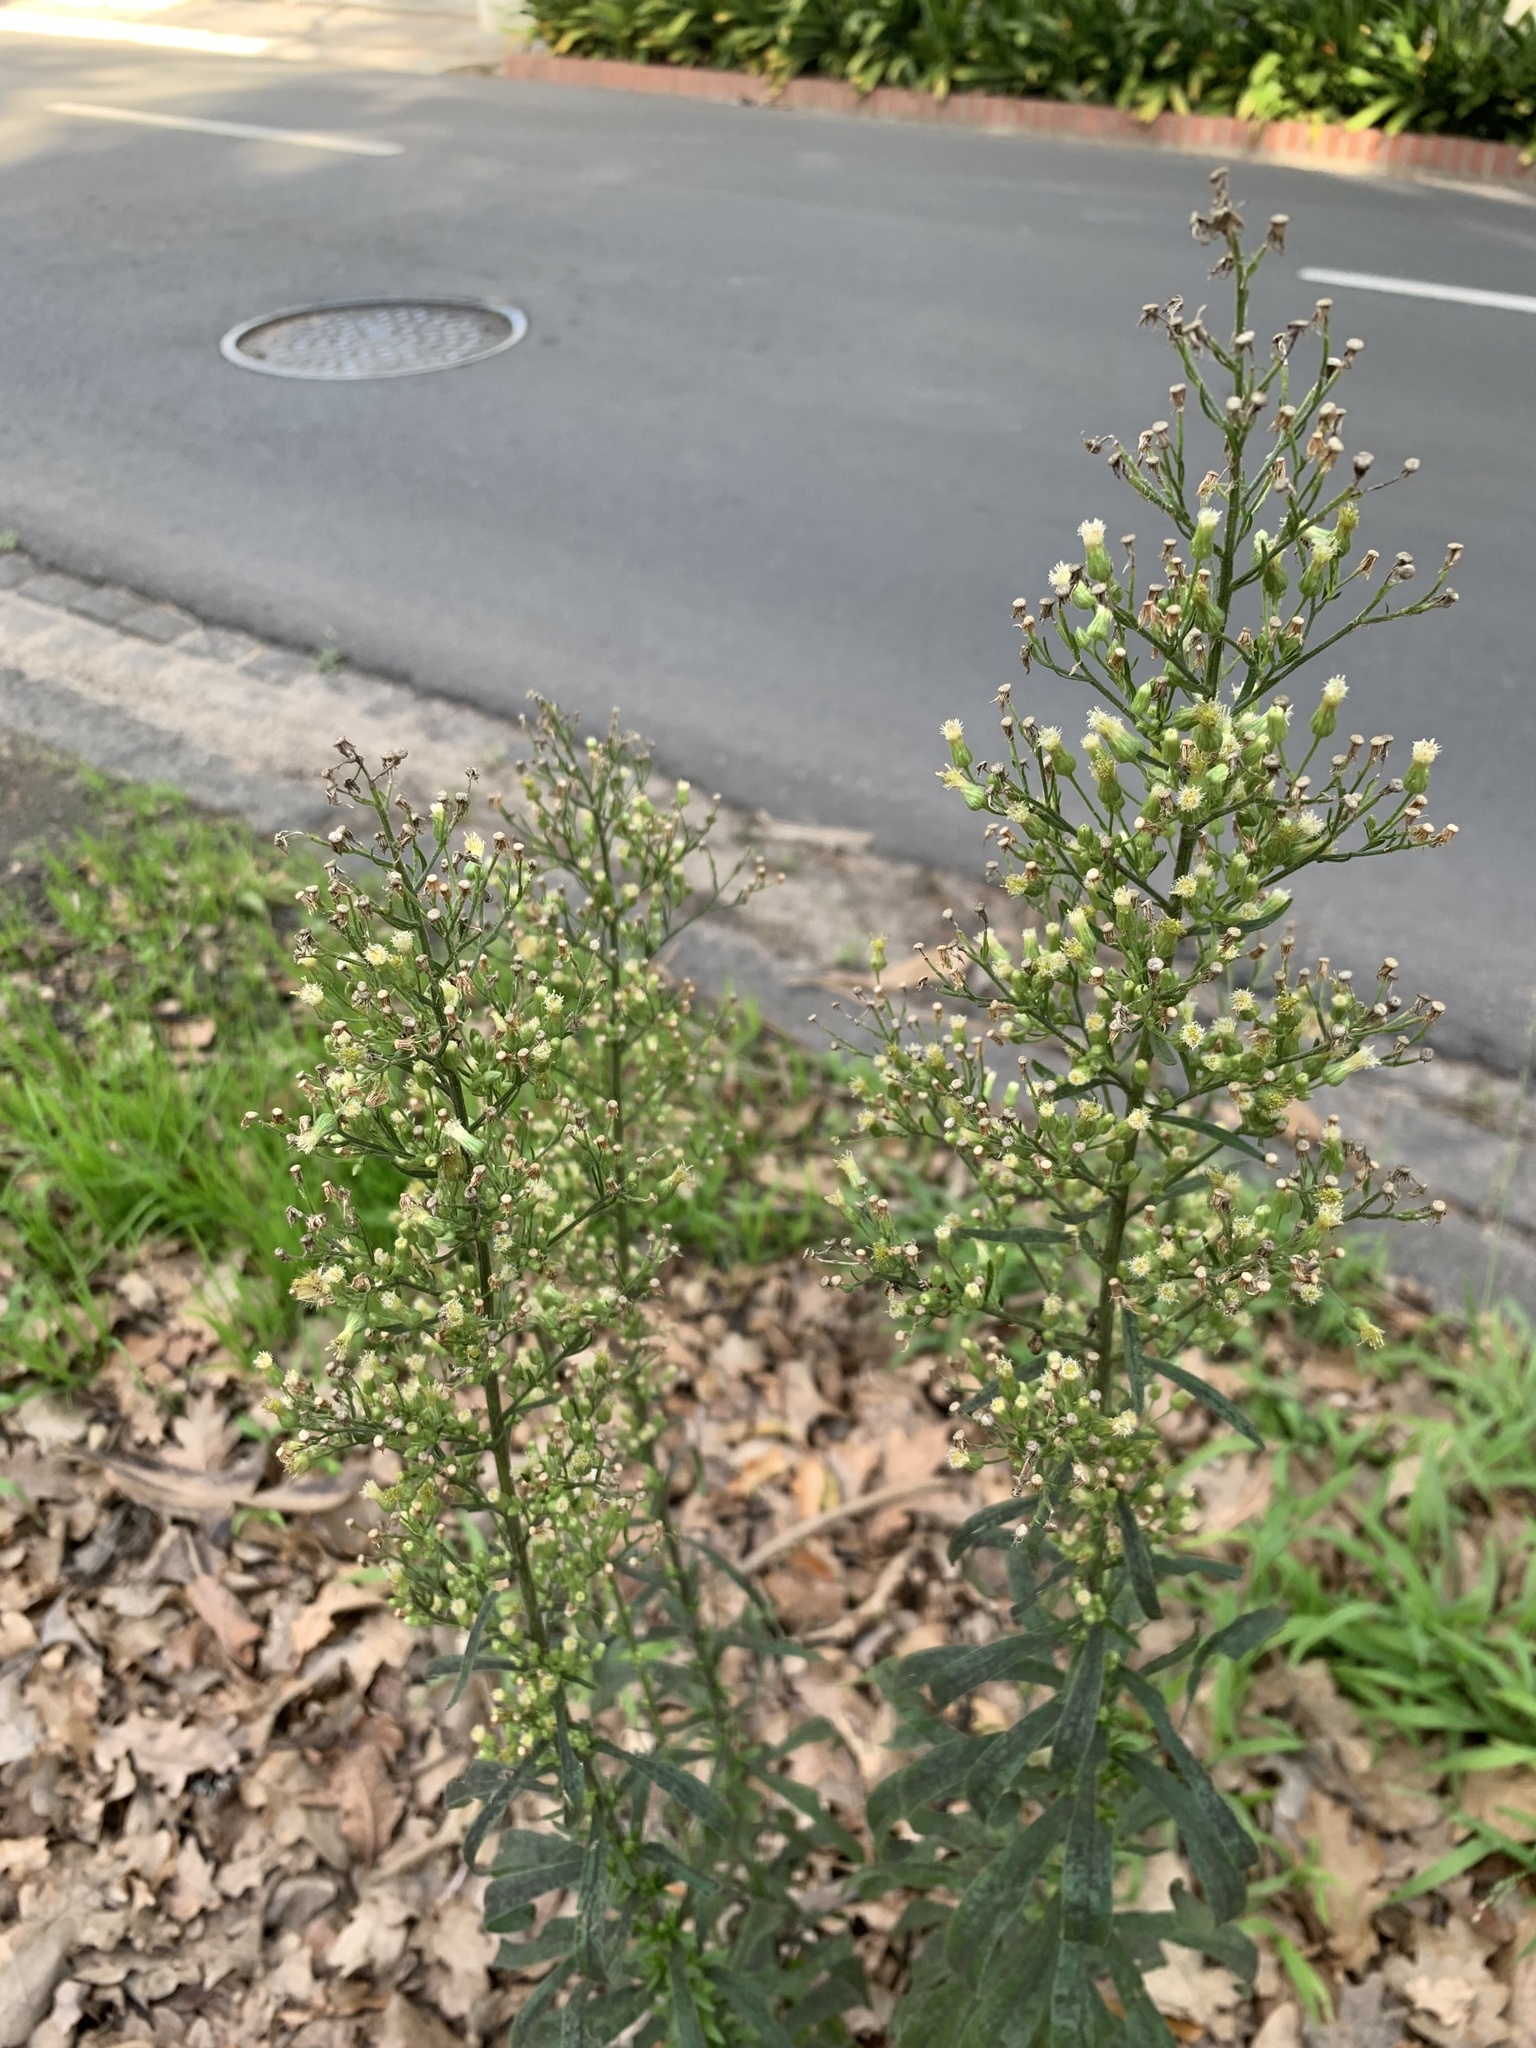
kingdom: Plantae
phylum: Tracheophyta
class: Magnoliopsida
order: Asterales
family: Asteraceae
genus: Erigeron
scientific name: Erigeron sumatrensis
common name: Daisy
